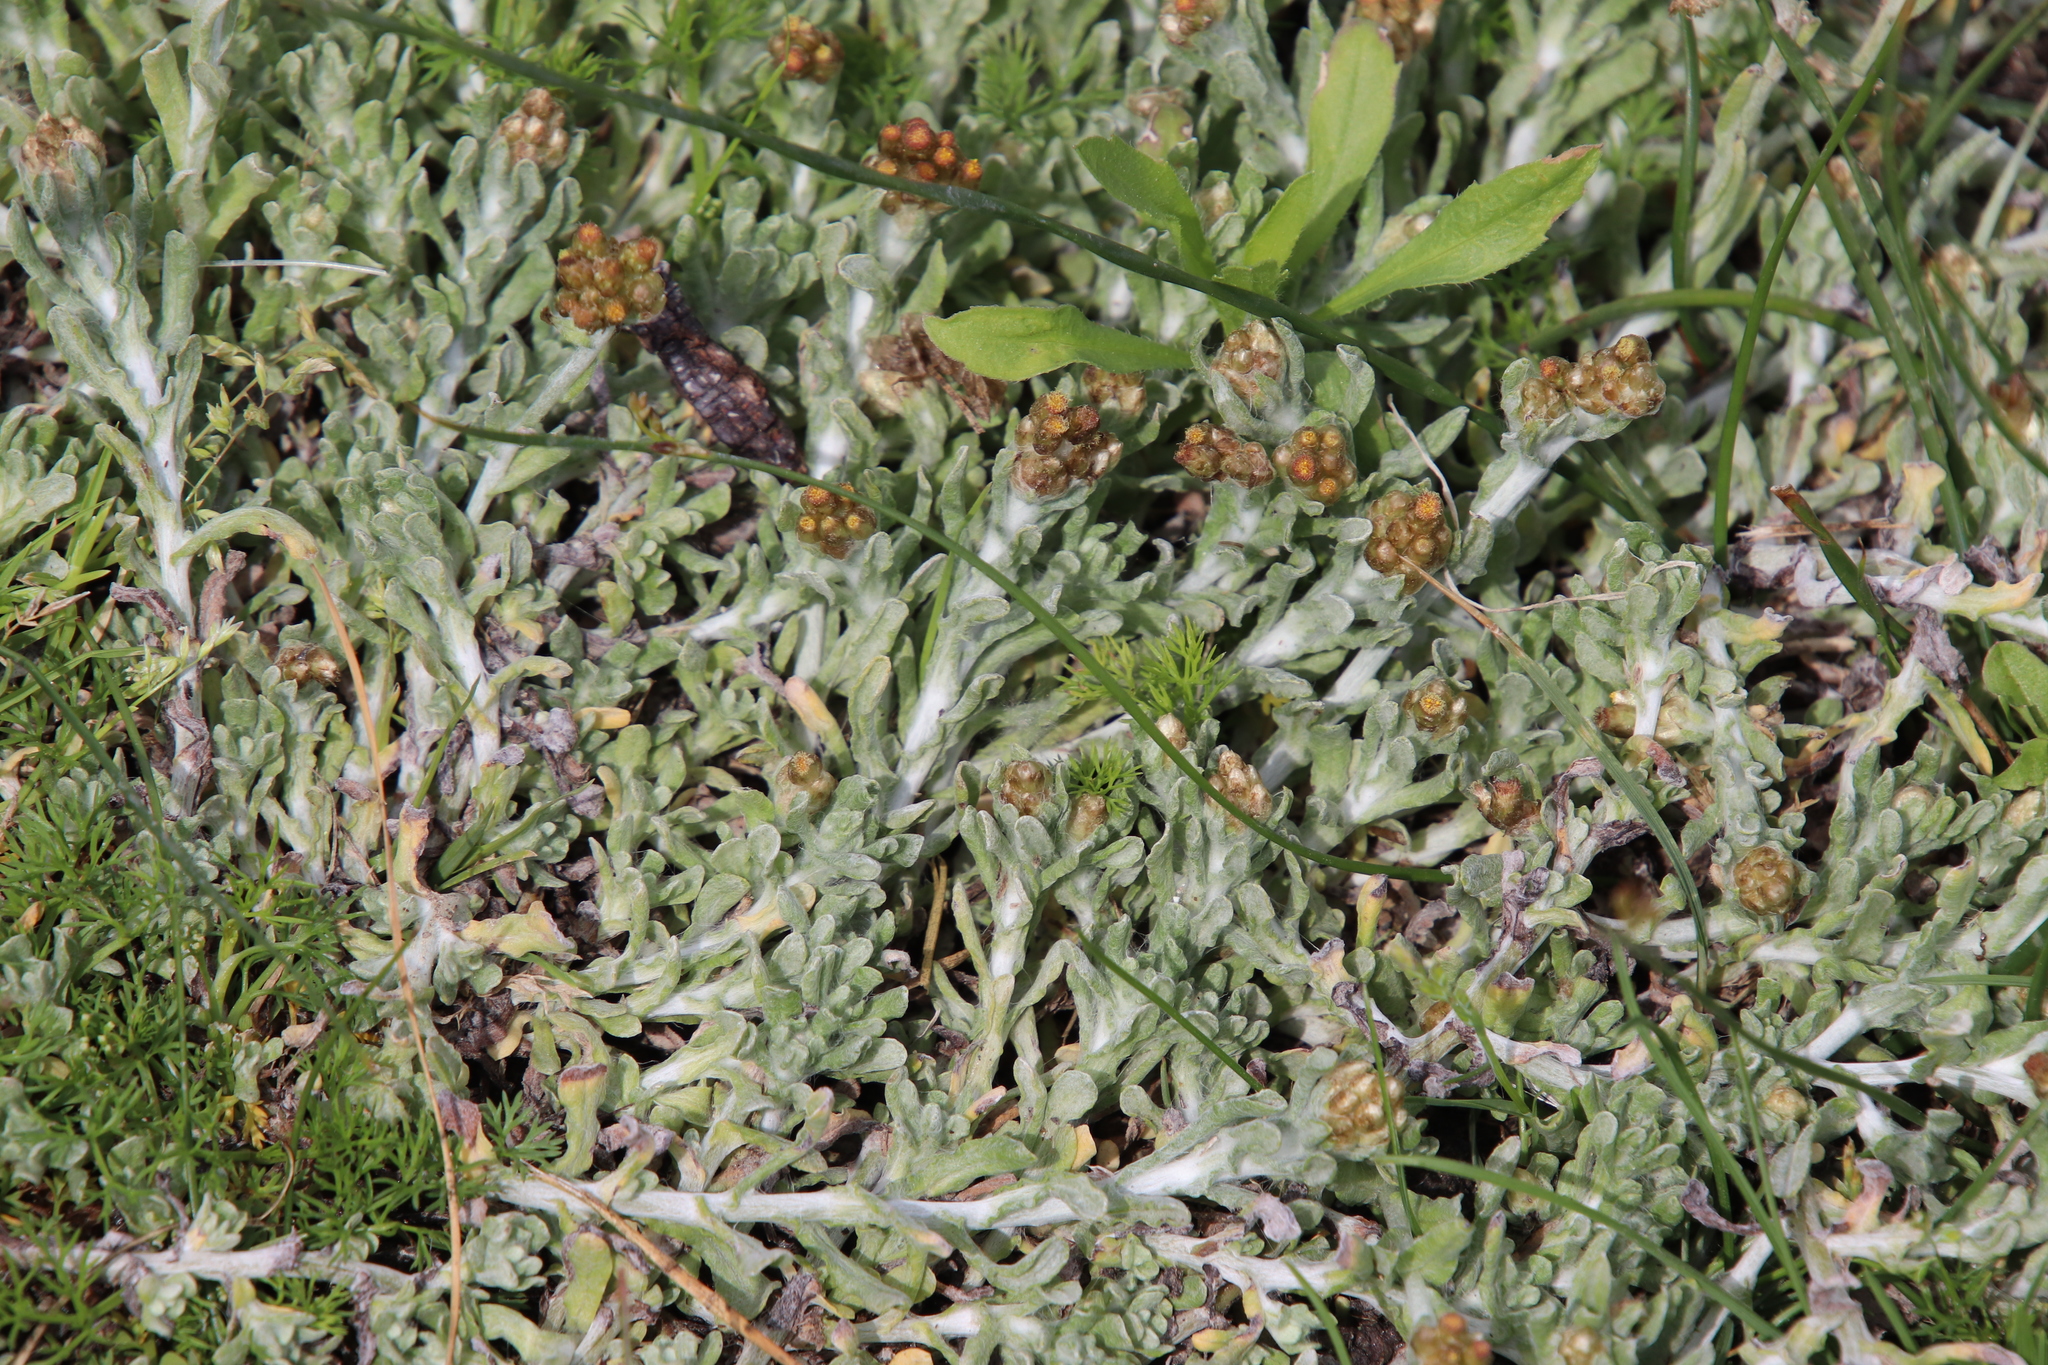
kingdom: Plantae
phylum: Tracheophyta
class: Magnoliopsida
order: Asterales
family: Asteraceae
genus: Helichrysum
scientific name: Helichrysum luteoalbum
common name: Daisy
